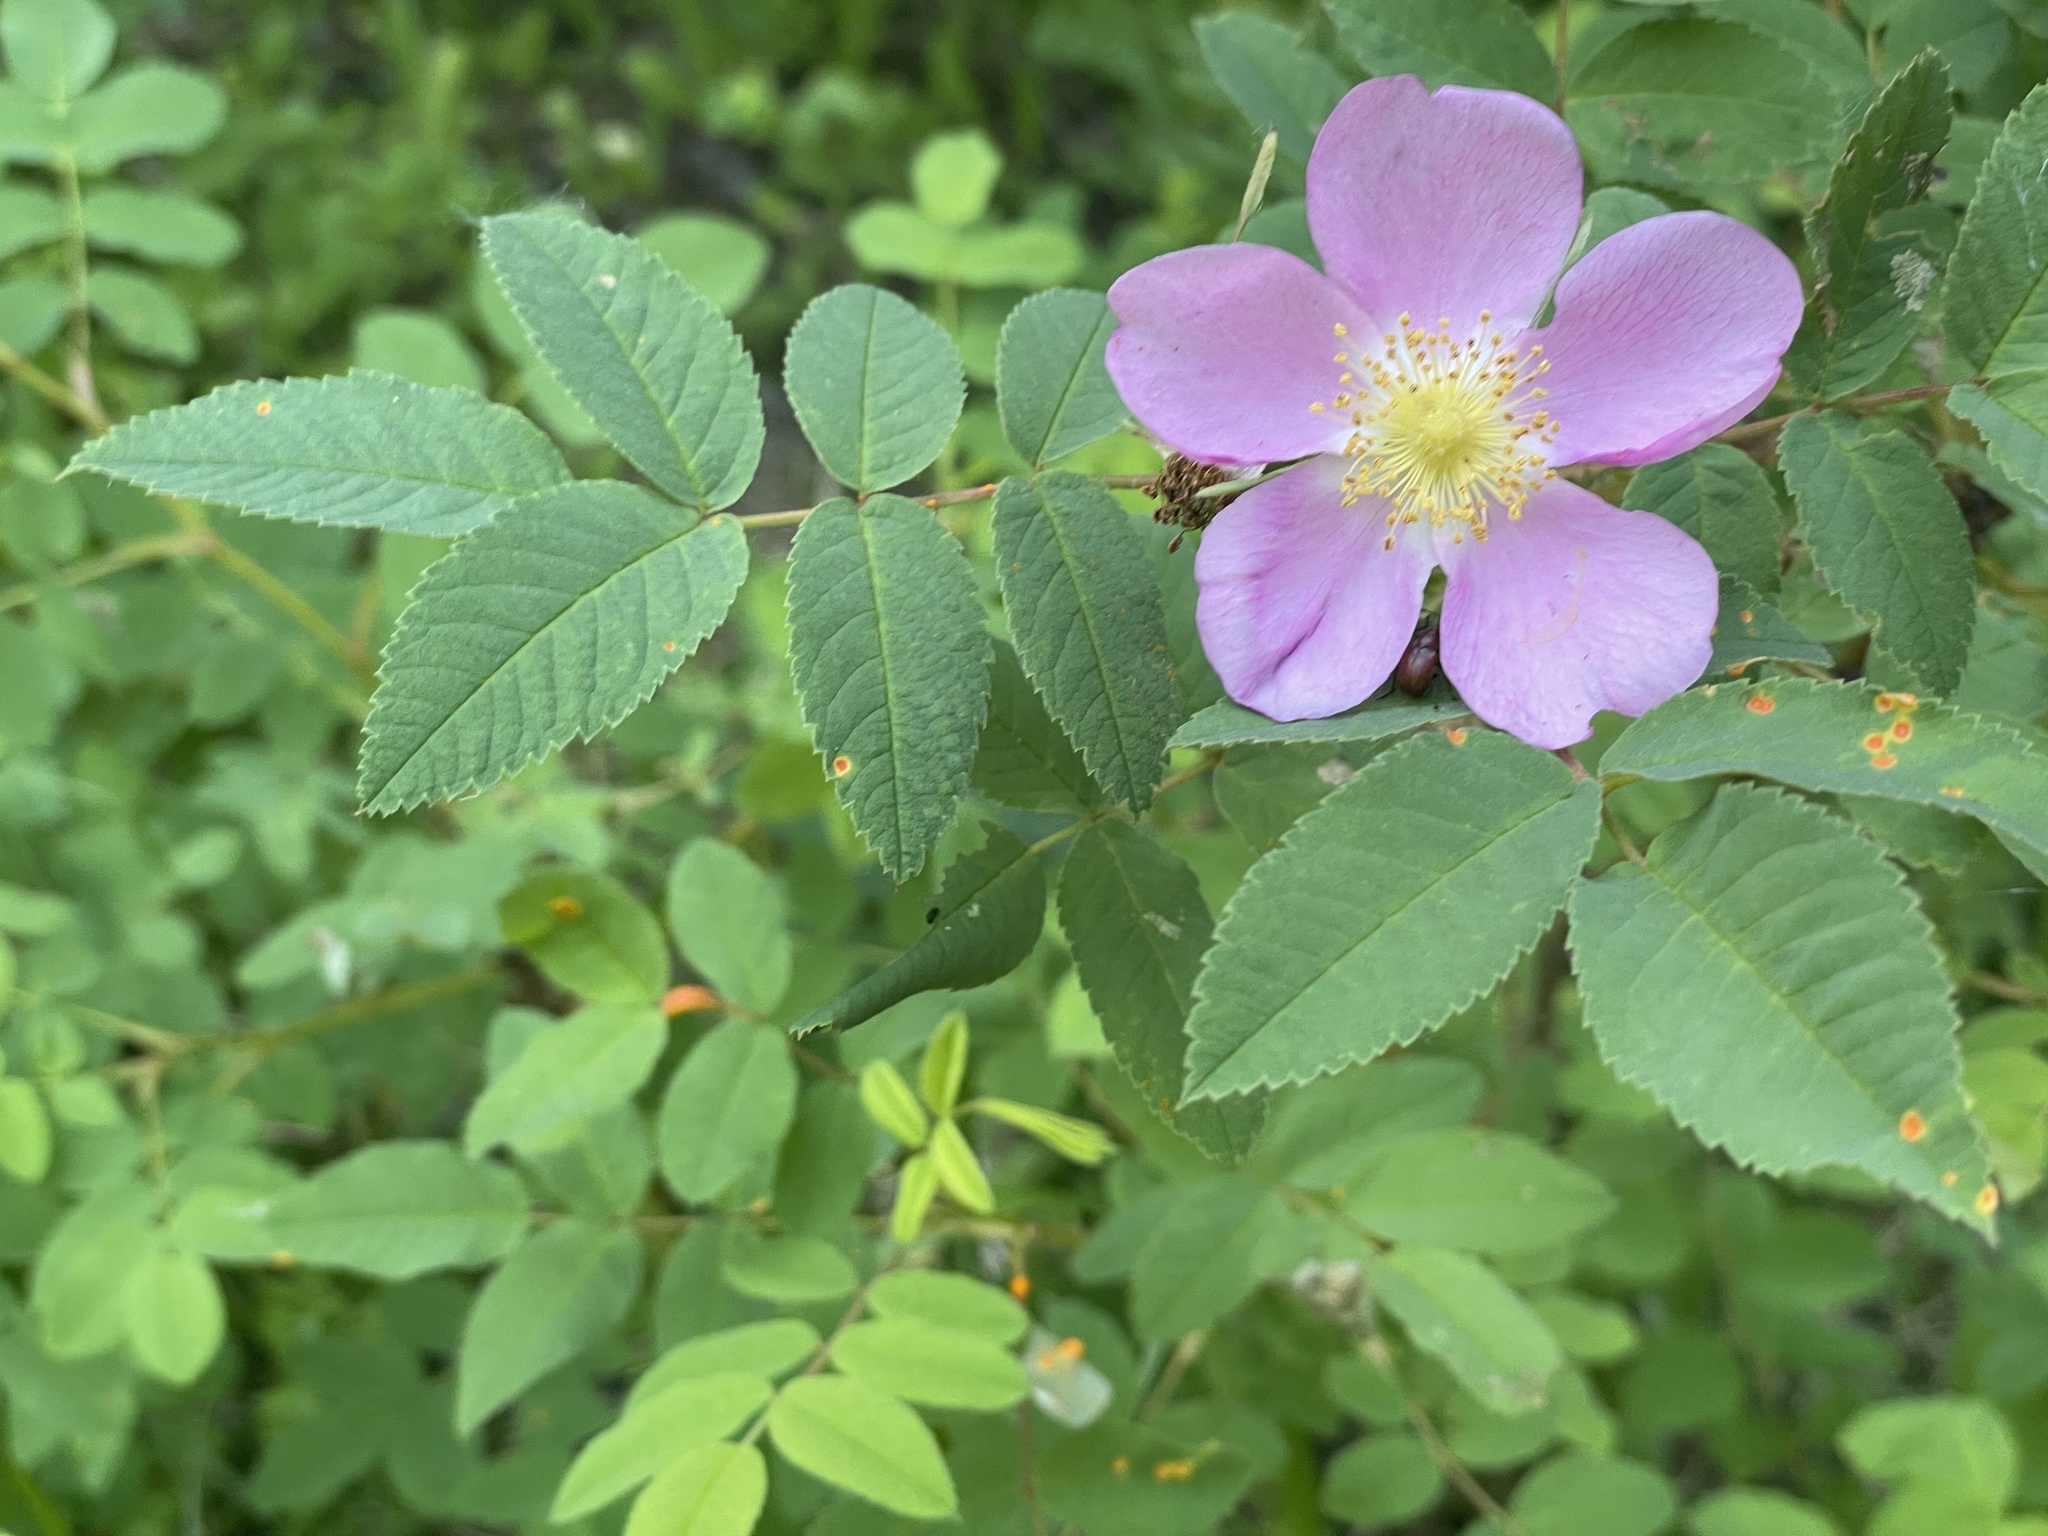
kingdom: Plantae
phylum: Tracheophyta
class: Magnoliopsida
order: Rosales
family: Rosaceae
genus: Rosa
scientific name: Rosa nutkana
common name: Nootka rose
